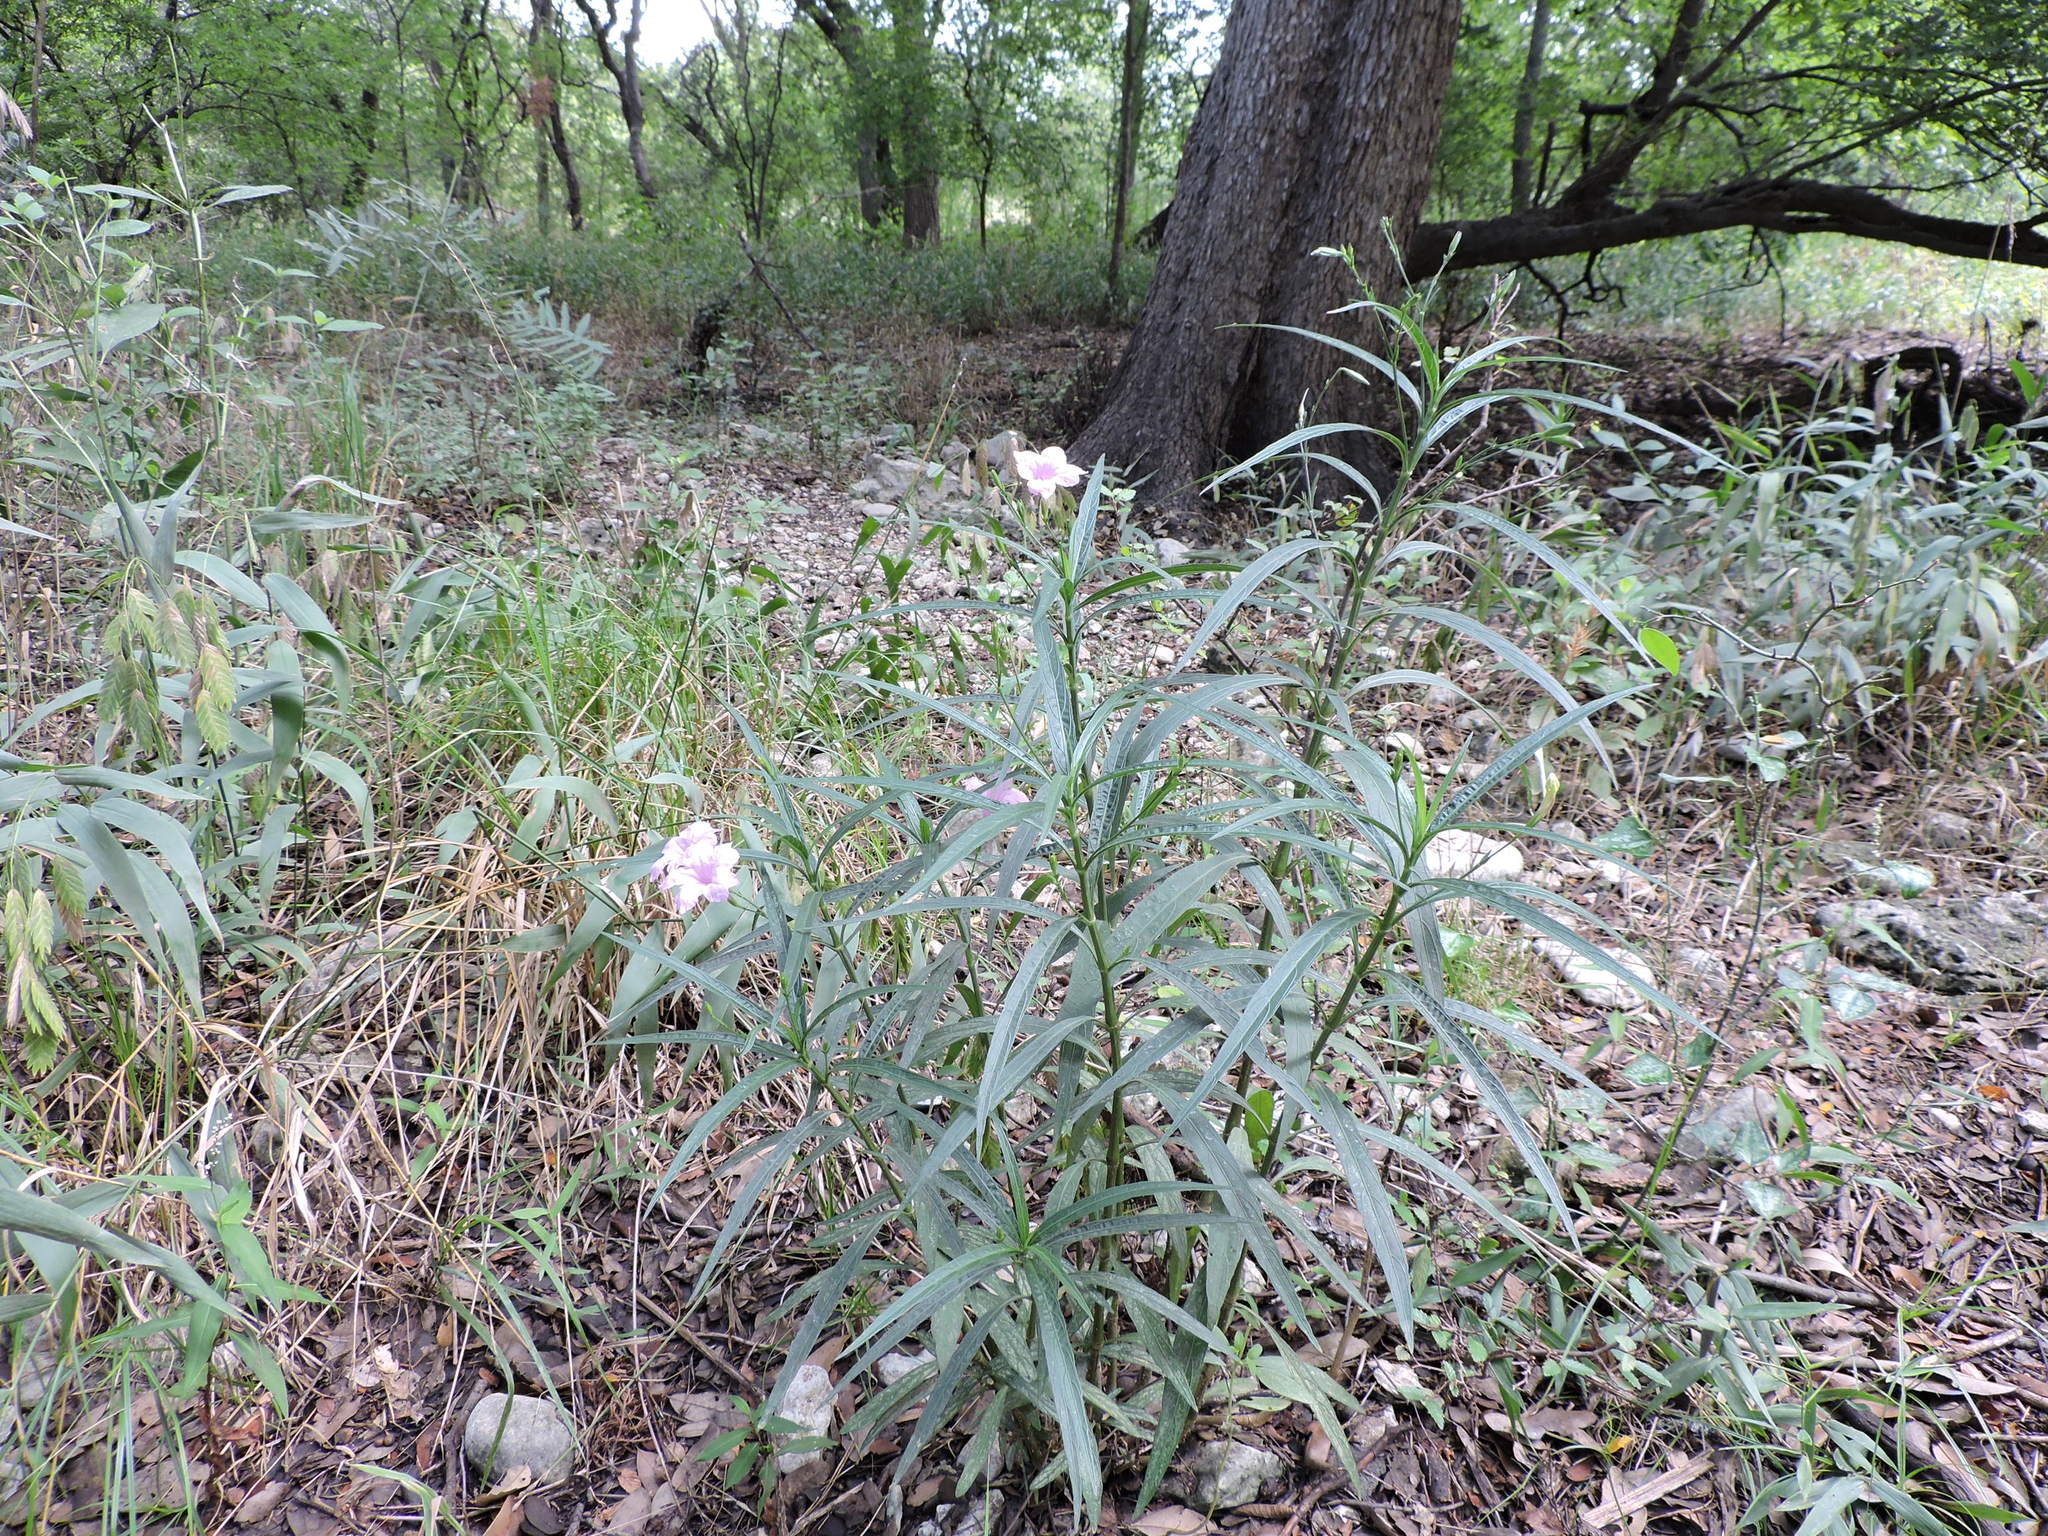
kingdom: Plantae
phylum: Tracheophyta
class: Magnoliopsida
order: Lamiales
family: Acanthaceae
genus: Ruellia
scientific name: Ruellia simplex
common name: Softseed wild petunia
